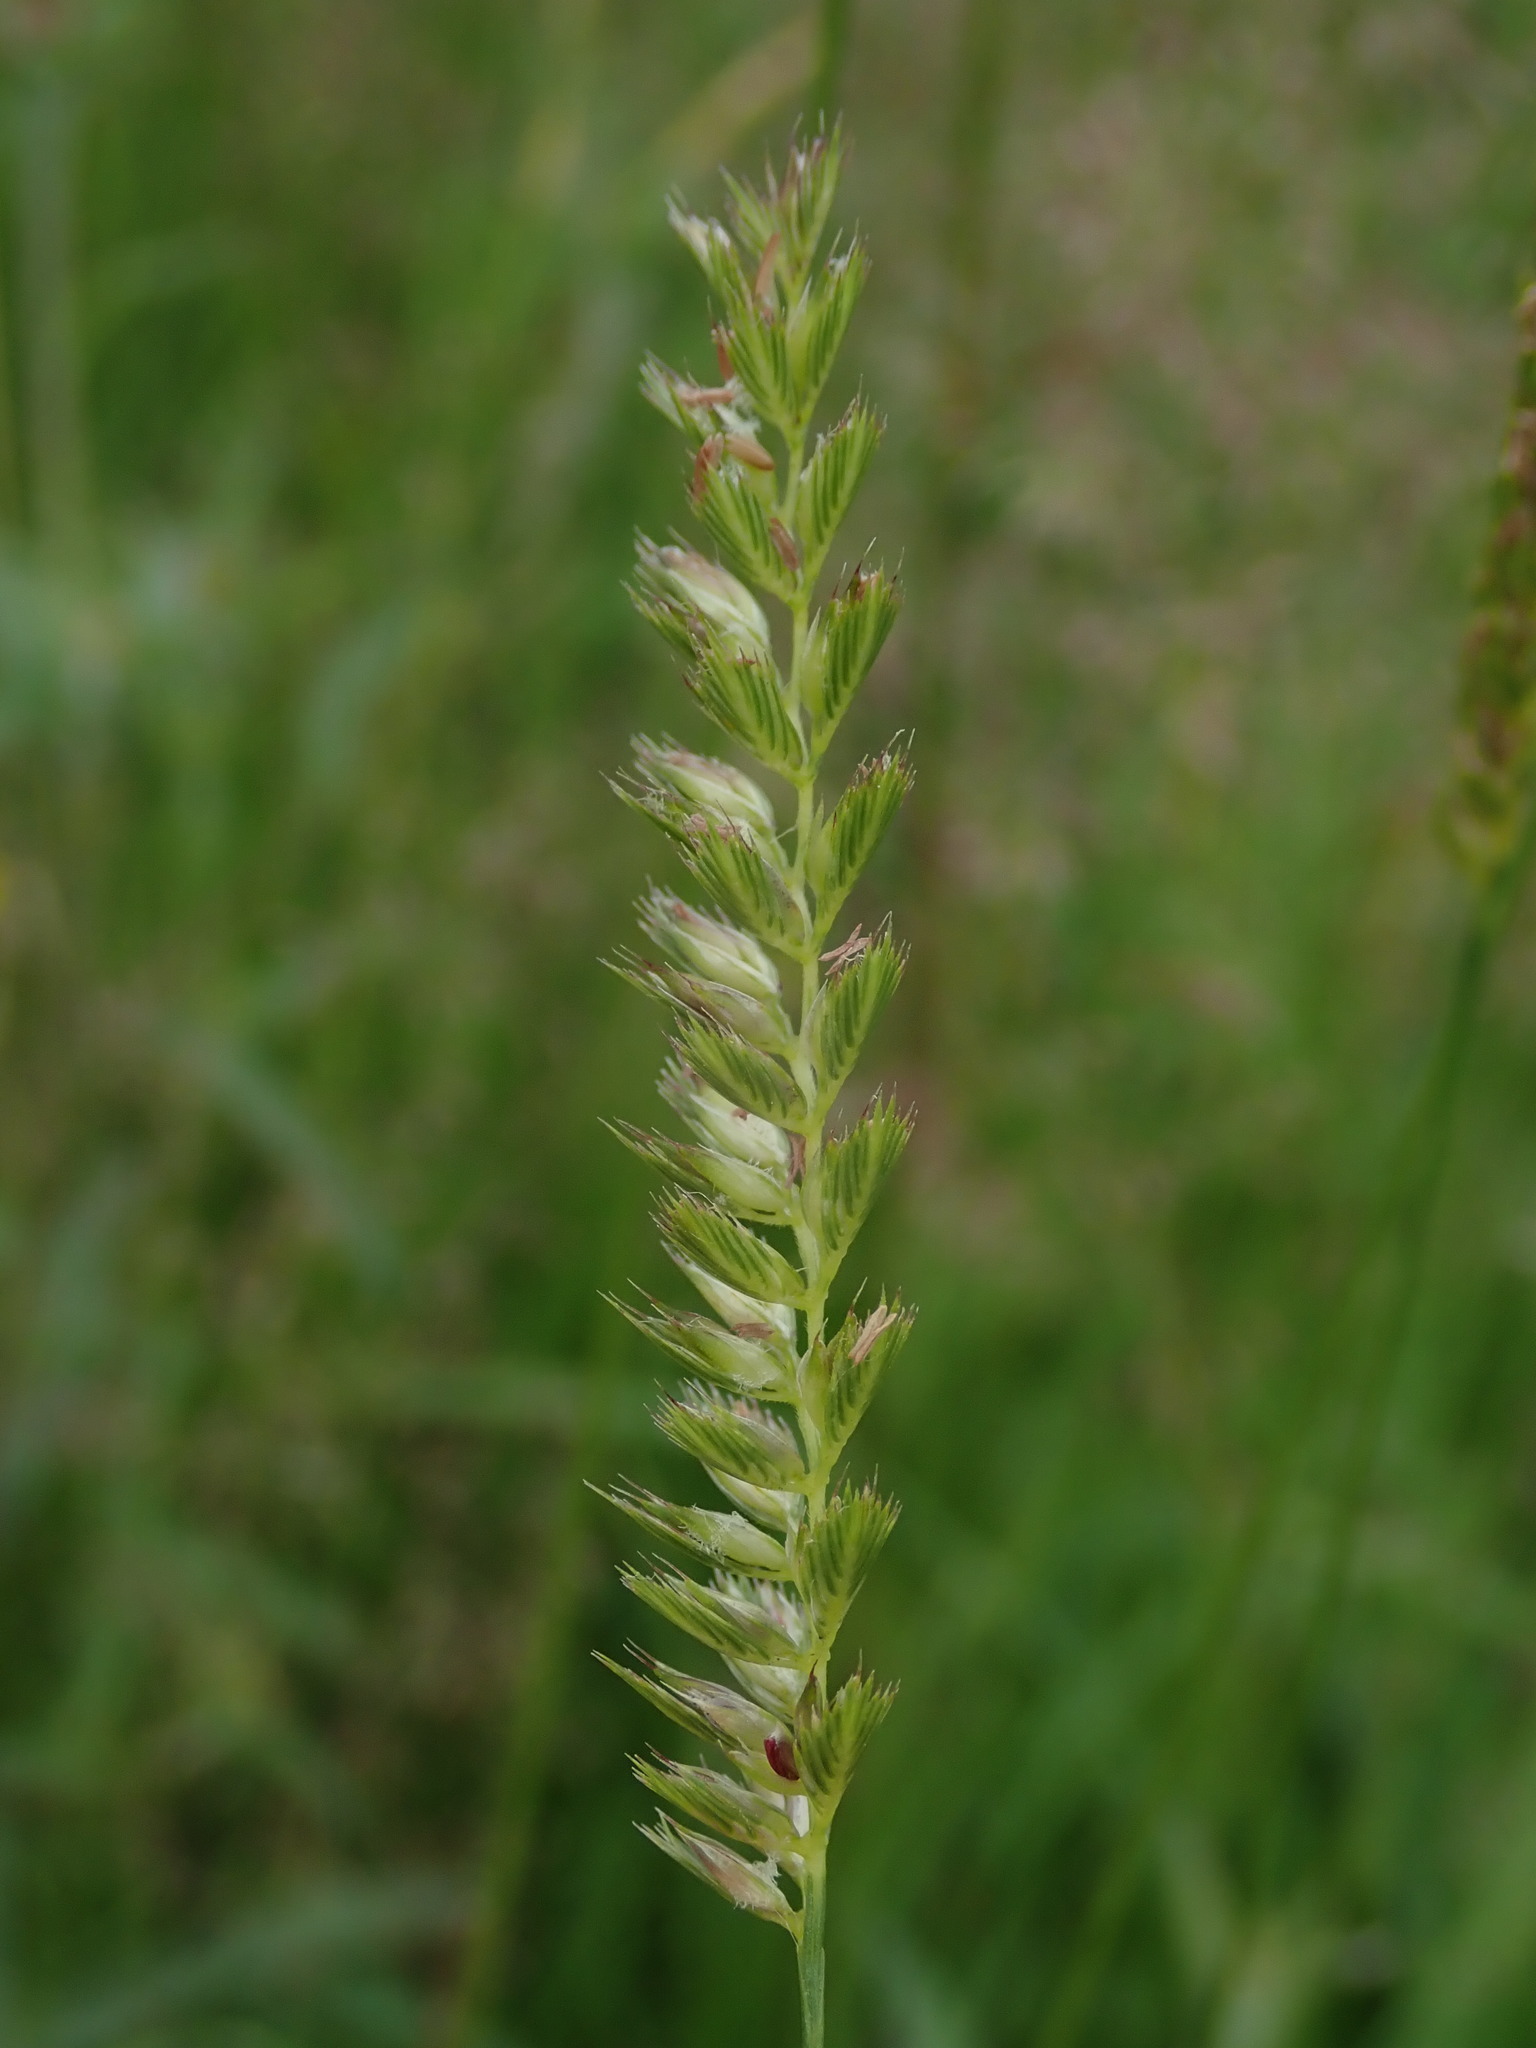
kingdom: Plantae
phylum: Tracheophyta
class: Liliopsida
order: Poales
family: Poaceae
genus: Cynosurus
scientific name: Cynosurus cristatus
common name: Crested dog's-tail
